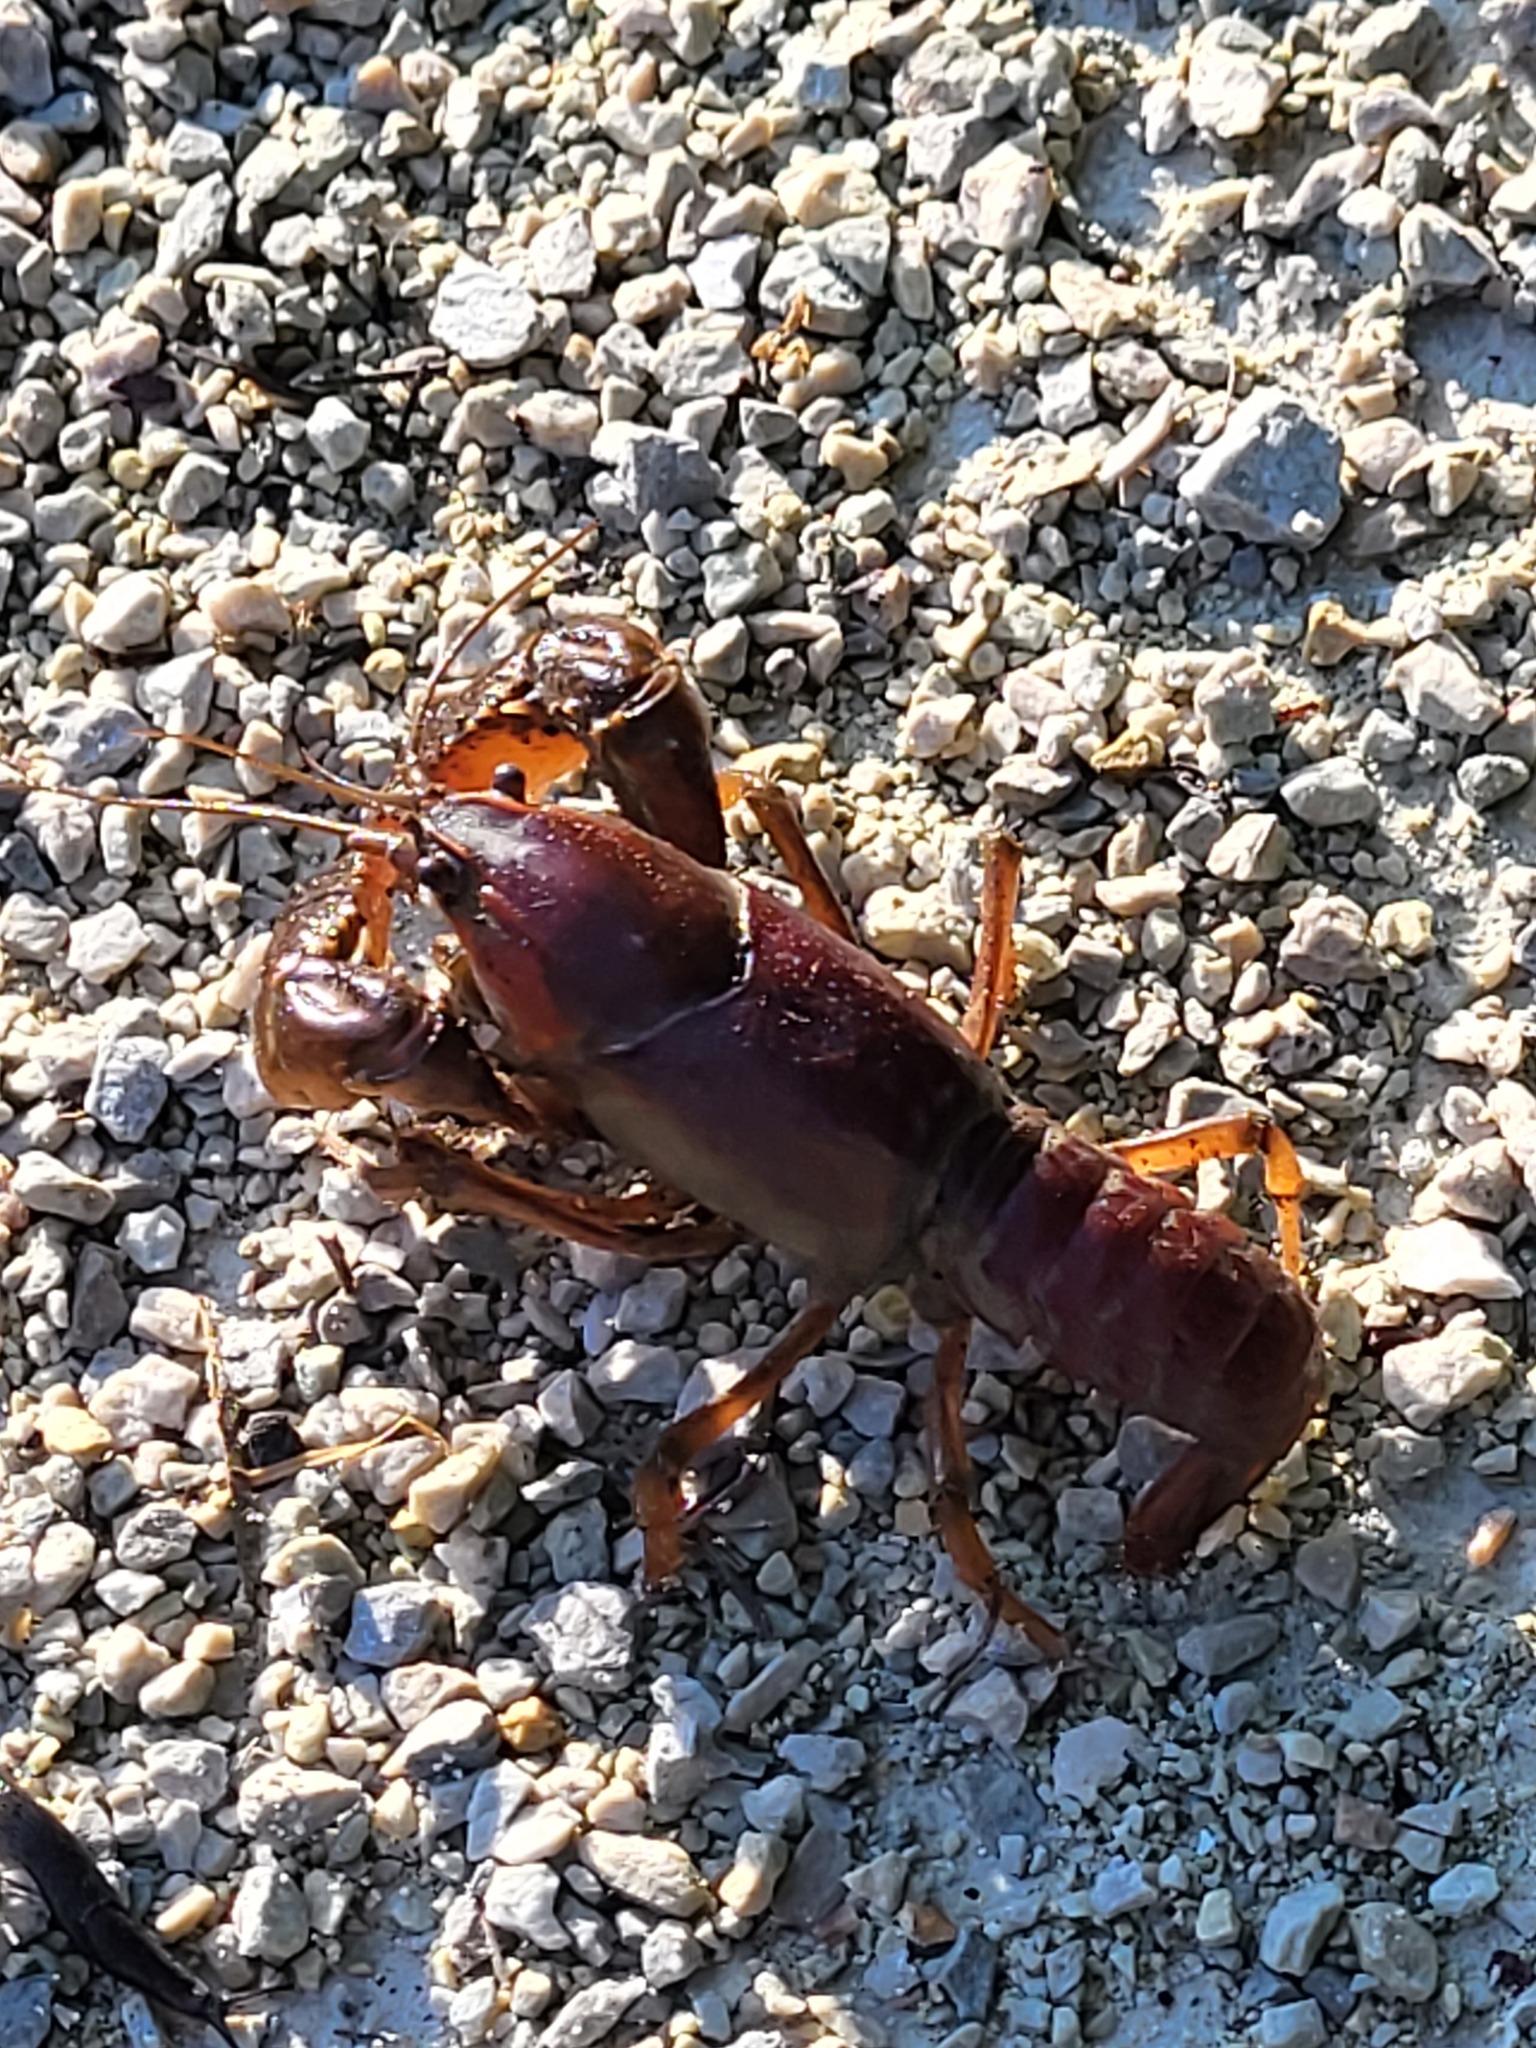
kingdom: Animalia
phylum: Arthropoda
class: Malacostraca
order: Decapoda
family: Cambaridae
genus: Procambarus
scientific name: Procambarus gracilis
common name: Prairie crayfish
